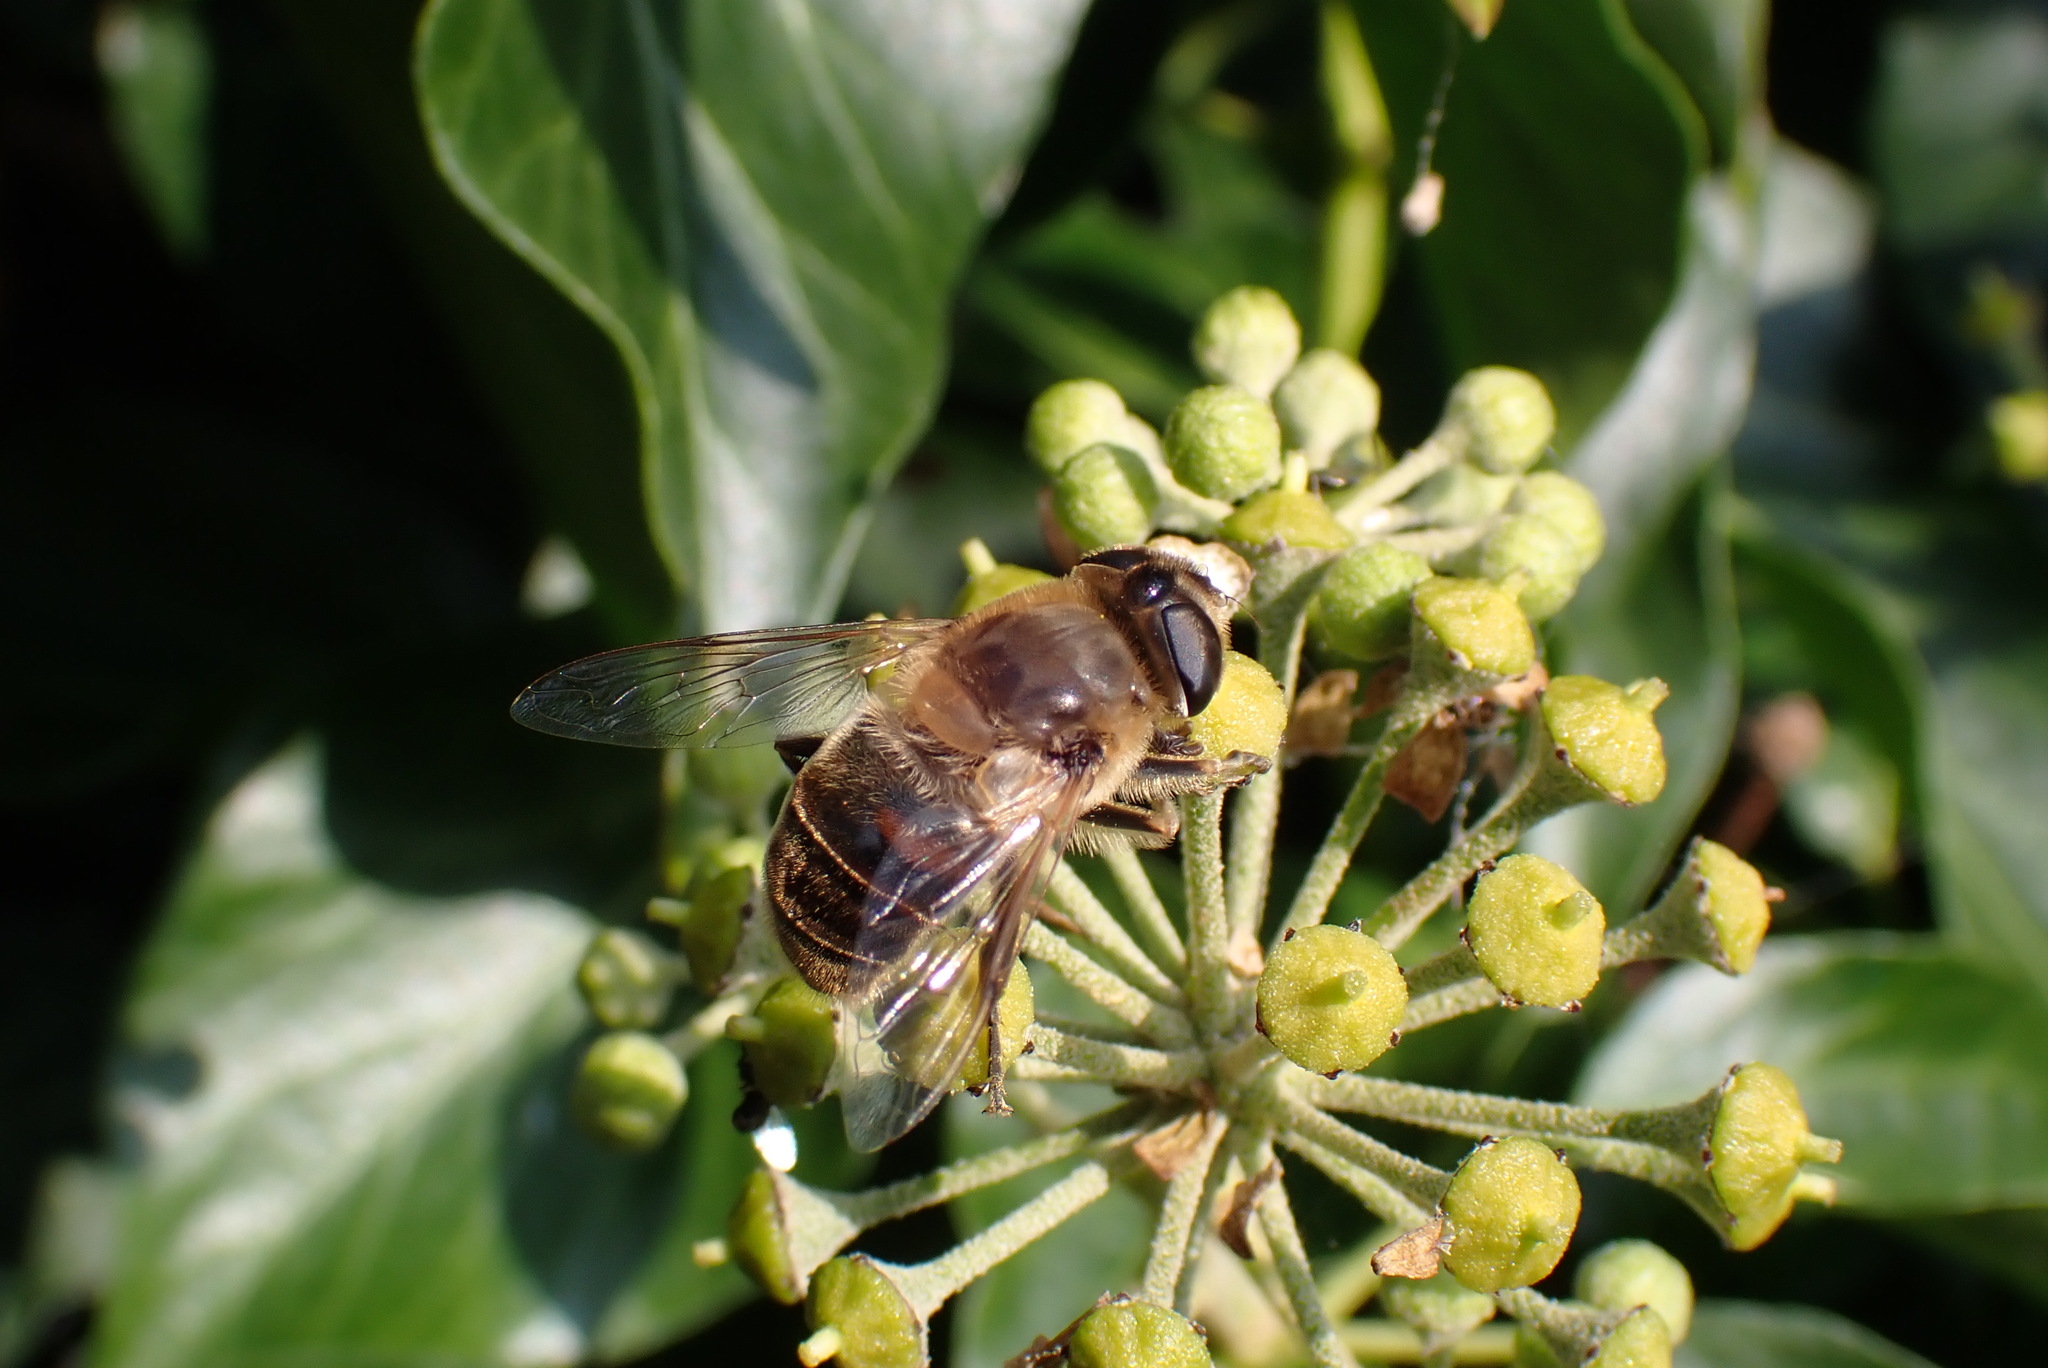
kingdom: Animalia
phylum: Arthropoda
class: Insecta
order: Diptera
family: Syrphidae
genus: Eristalis
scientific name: Eristalis tenax
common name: Drone fly
